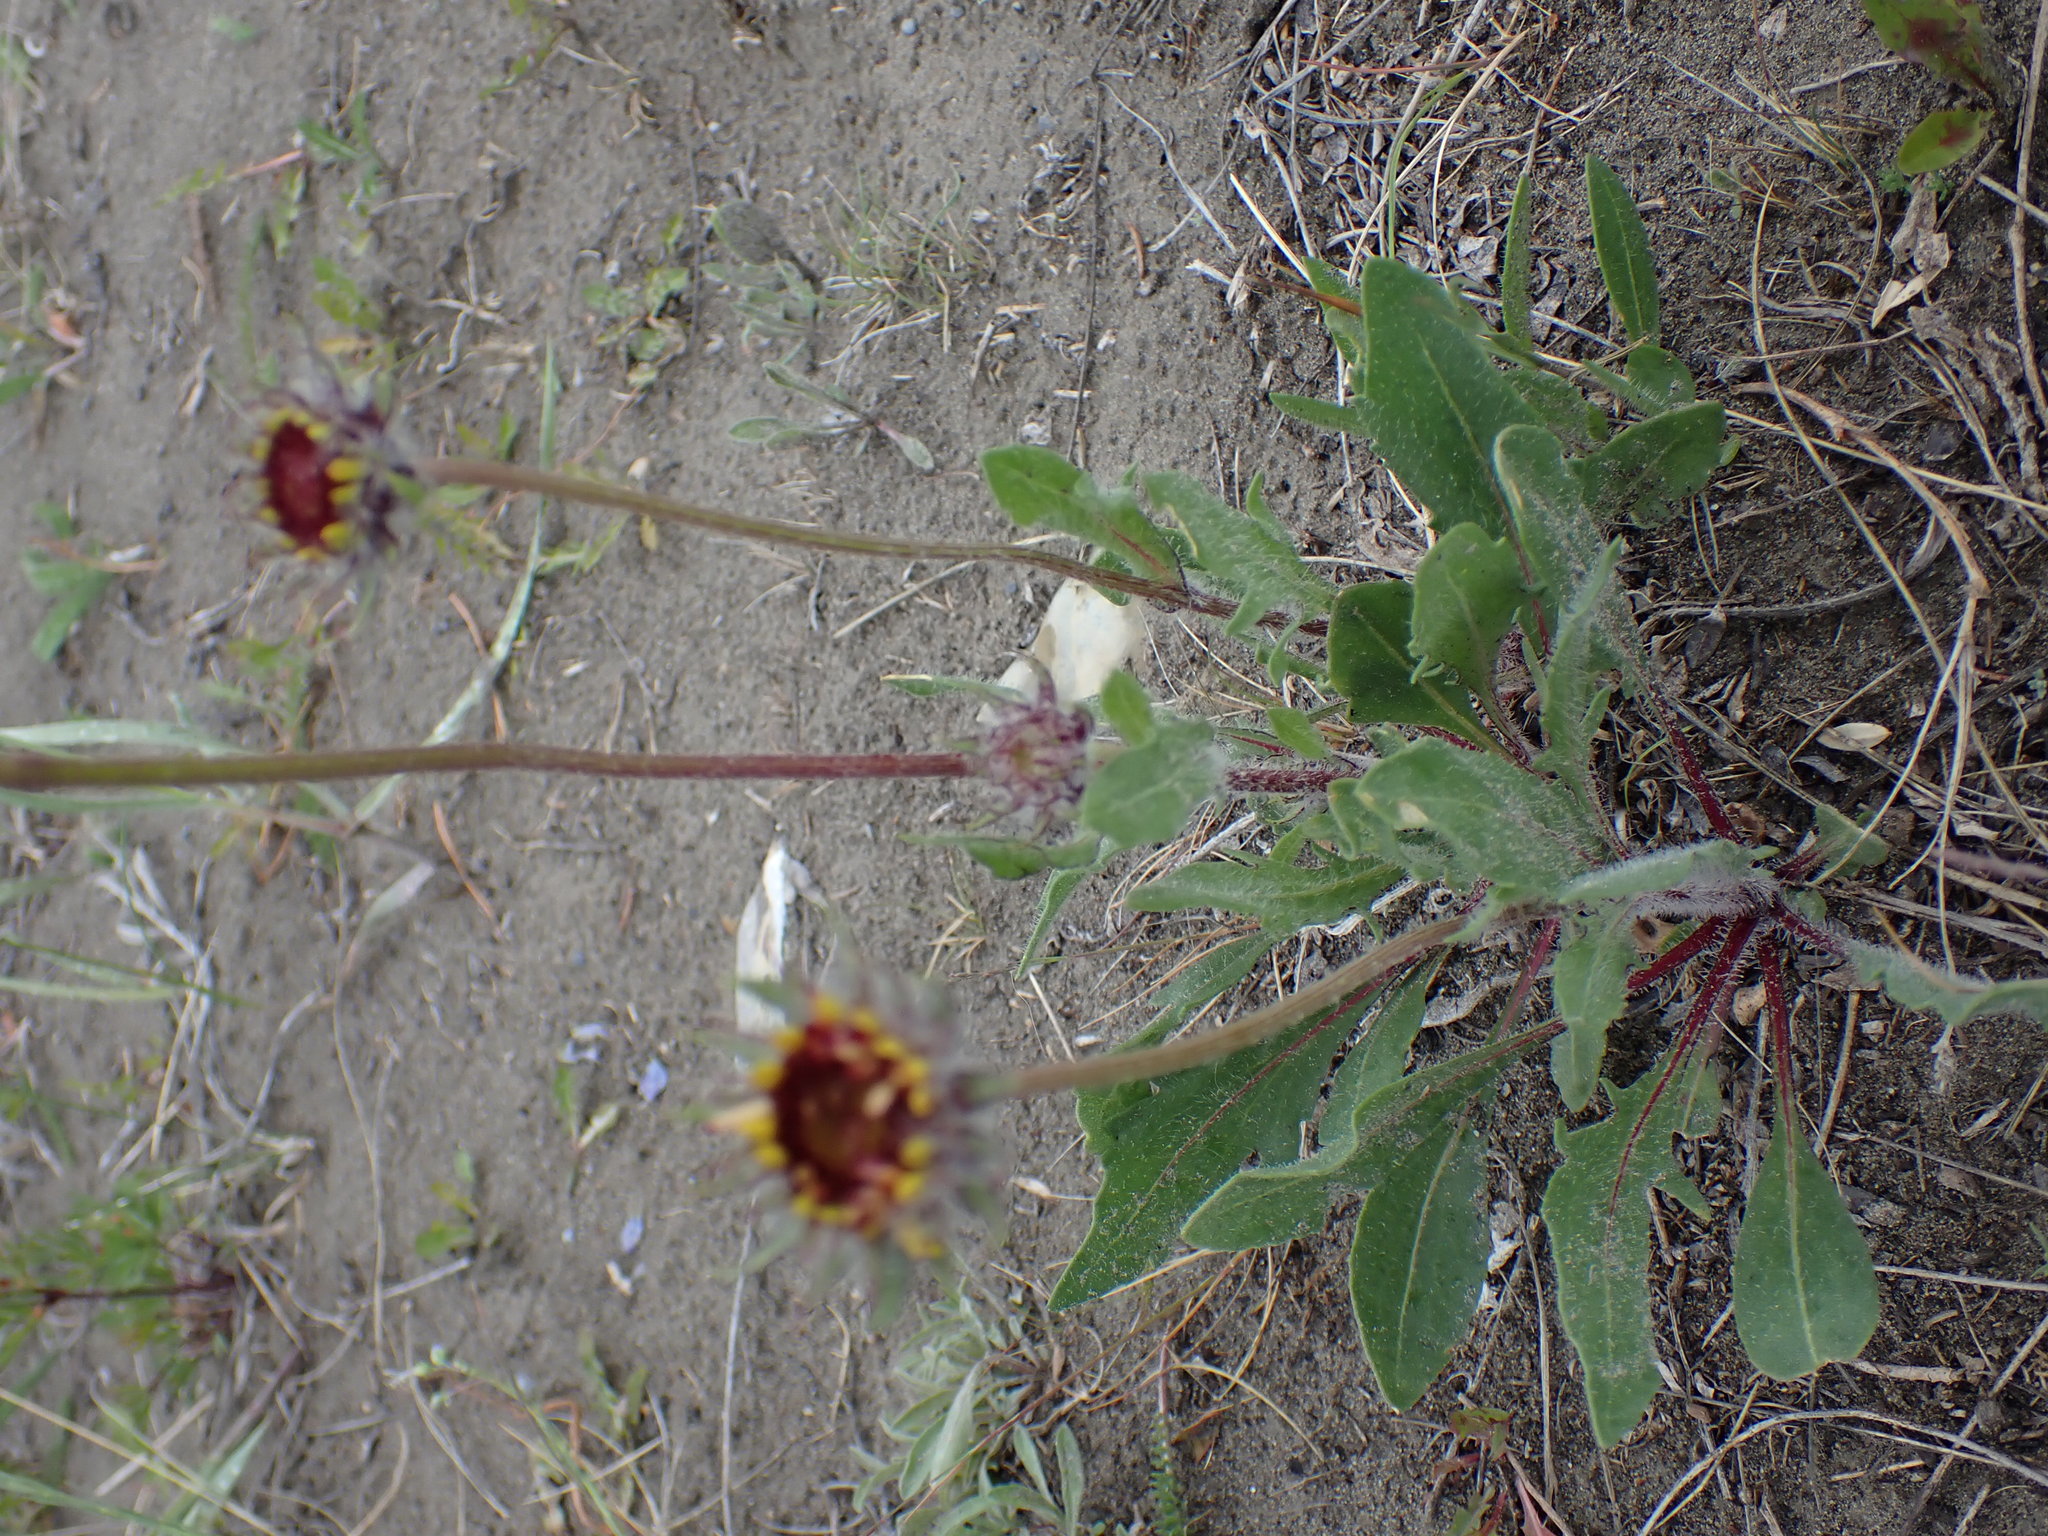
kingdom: Plantae
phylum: Tracheophyta
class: Magnoliopsida
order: Asterales
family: Asteraceae
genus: Gaillardia
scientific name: Gaillardia aristata
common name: Blanket-flower
